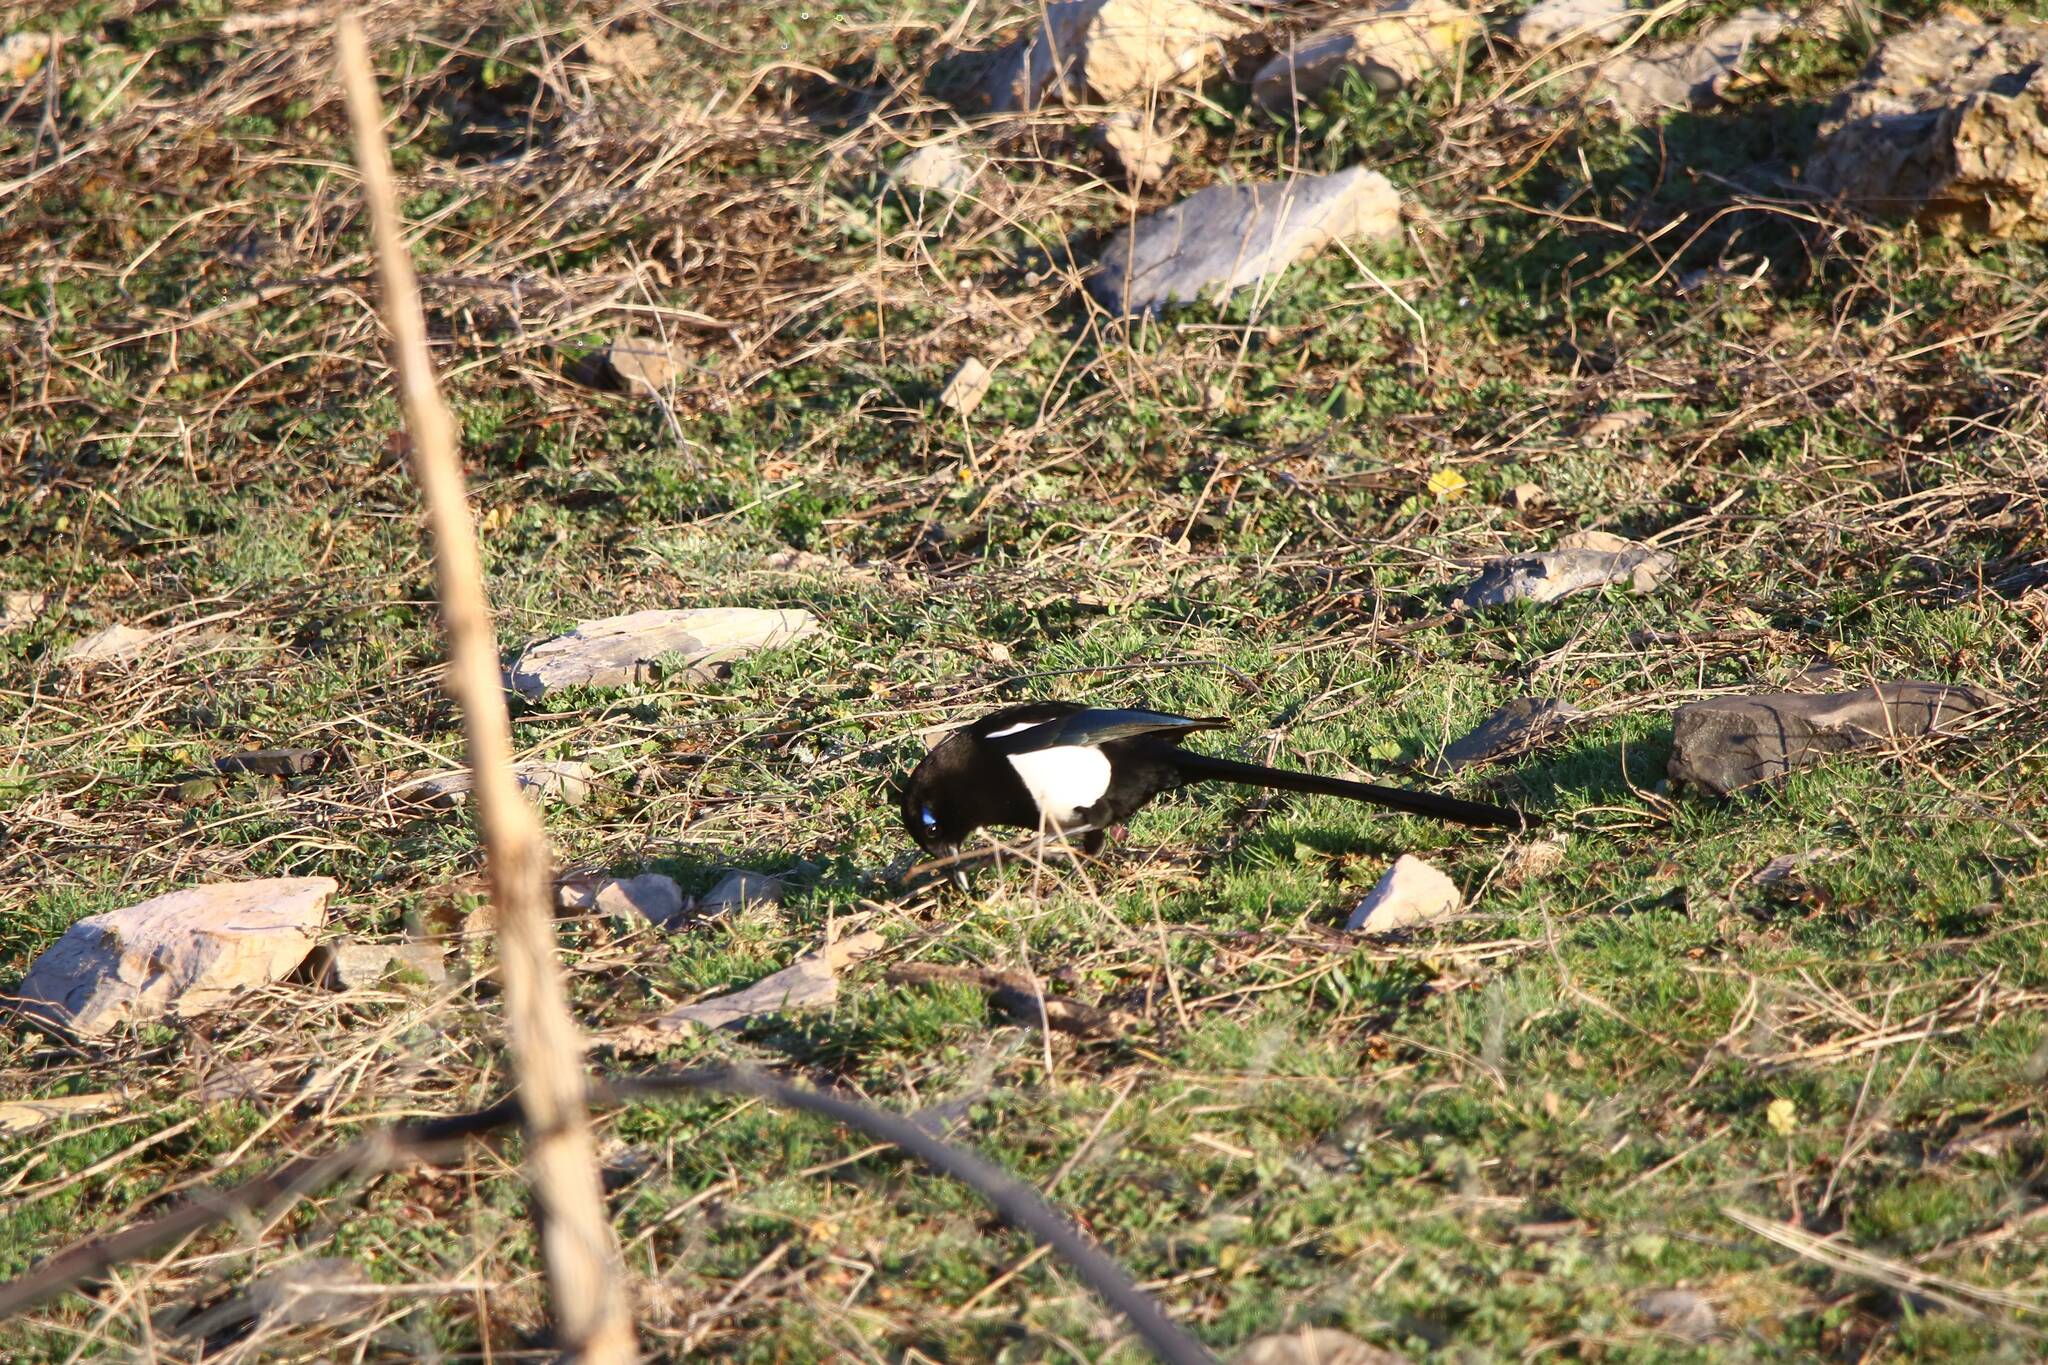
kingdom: Animalia
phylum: Chordata
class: Aves
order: Passeriformes
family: Corvidae
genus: Pica
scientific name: Pica mauritanica
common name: Maghreb magpie
